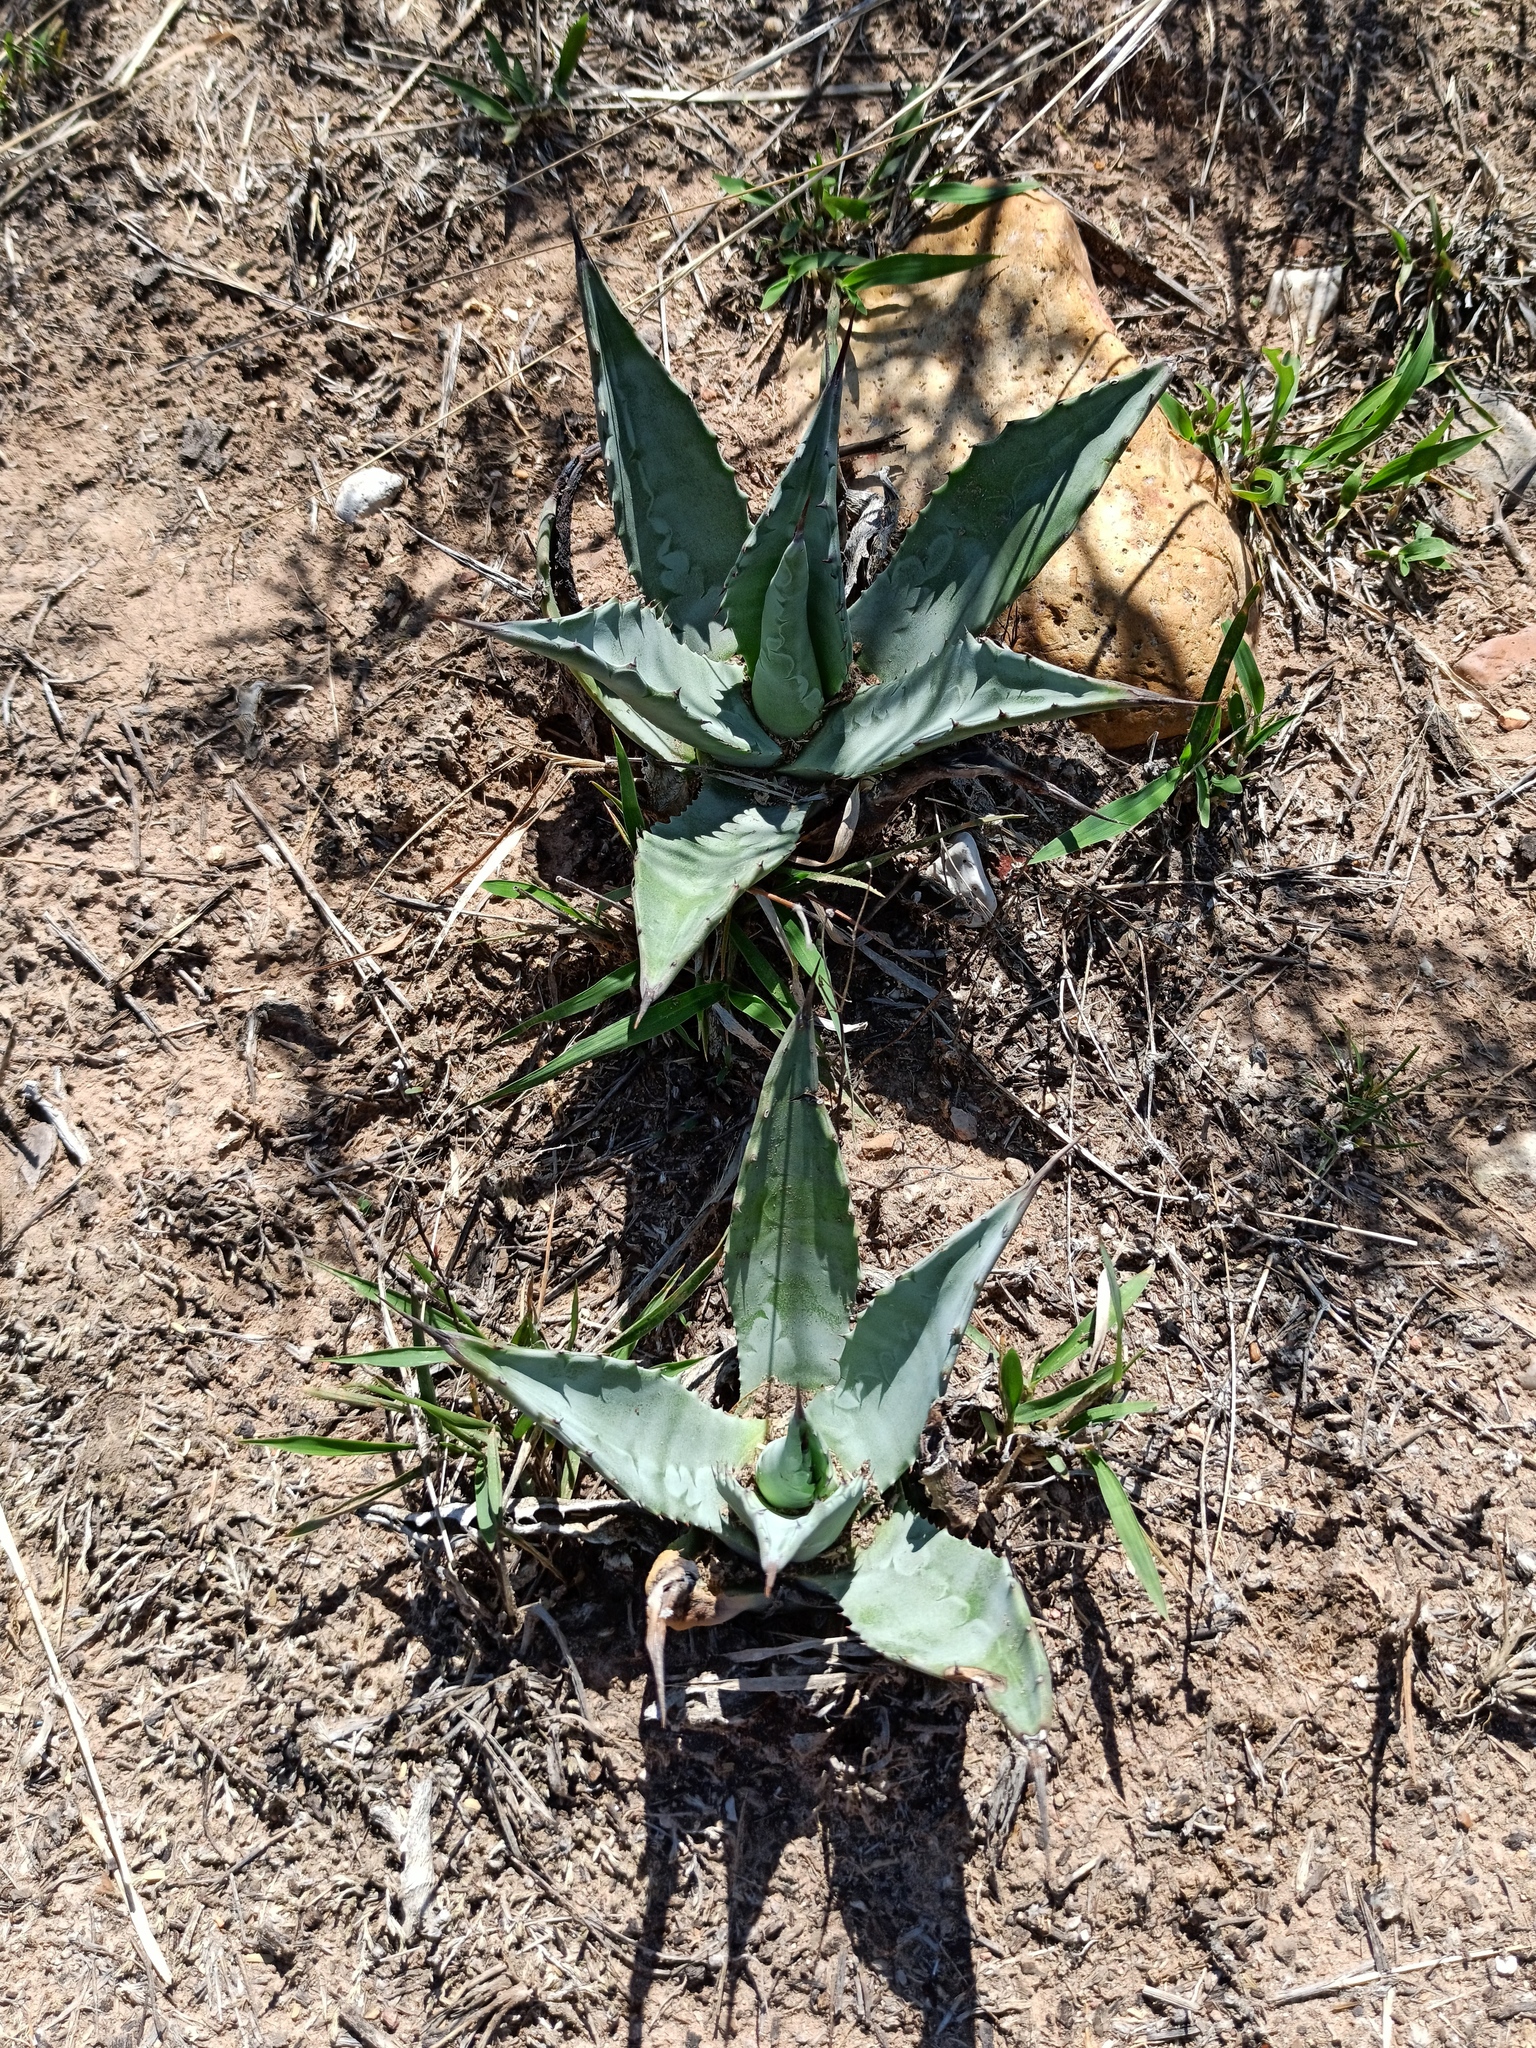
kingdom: Plantae
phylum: Tracheophyta
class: Liliopsida
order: Asparagales
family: Asparagaceae
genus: Agave
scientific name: Agave salmiana
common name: Pulque agave
